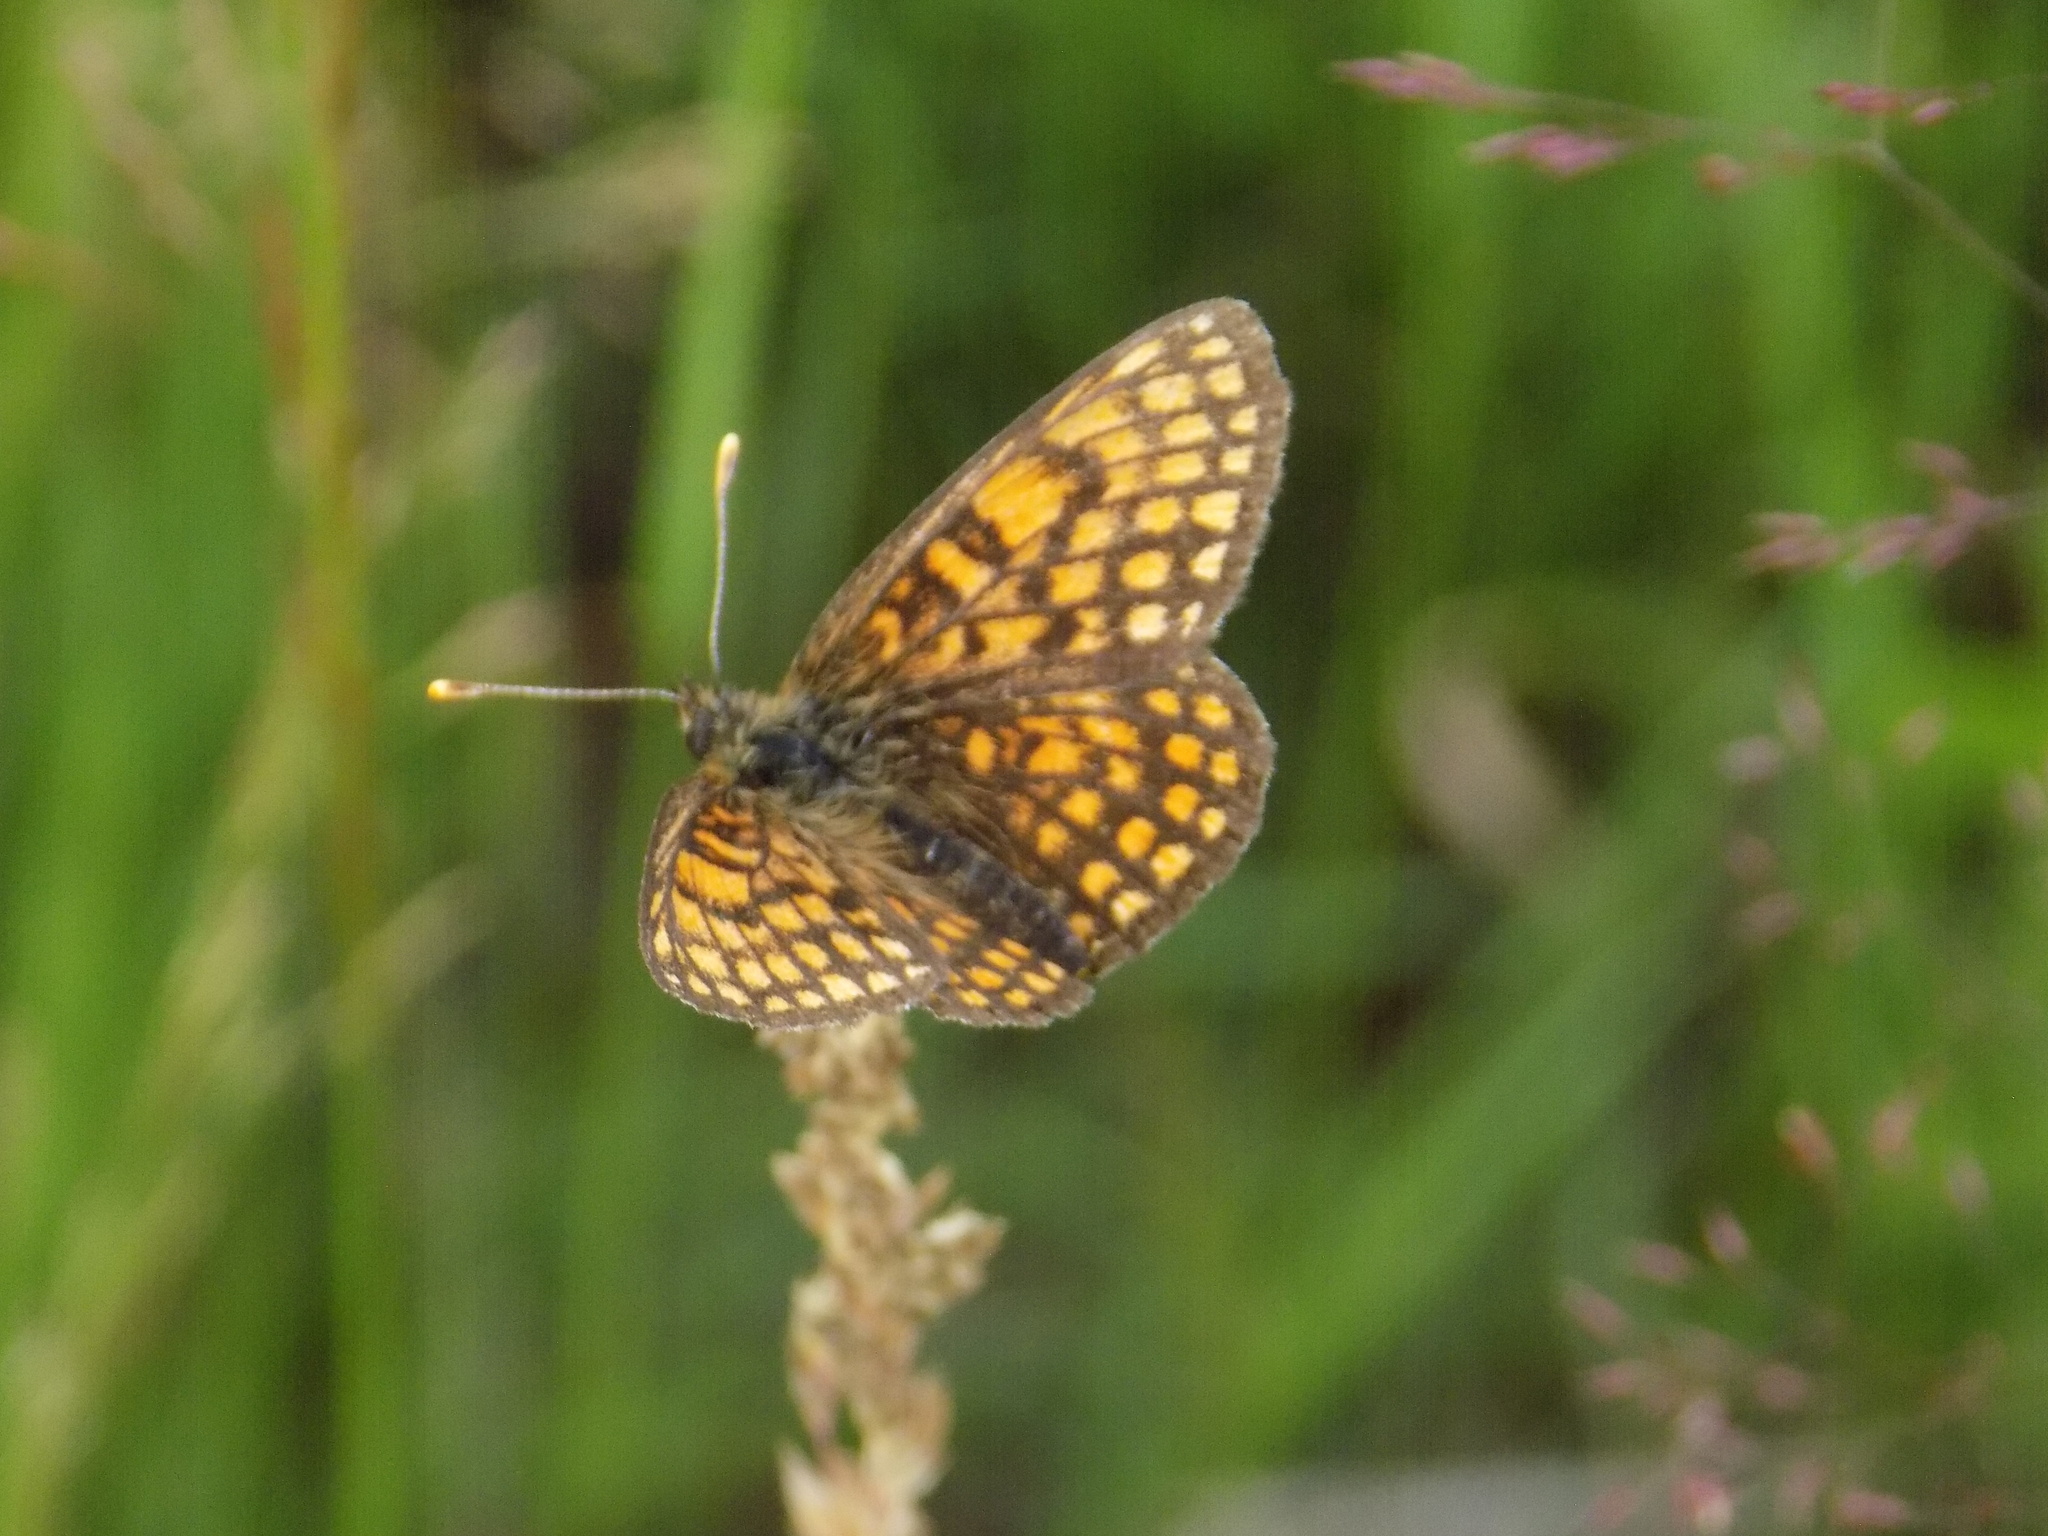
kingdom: Animalia
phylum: Arthropoda
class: Insecta
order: Lepidoptera
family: Nymphalidae
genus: Melitaea
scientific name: Melitaea
